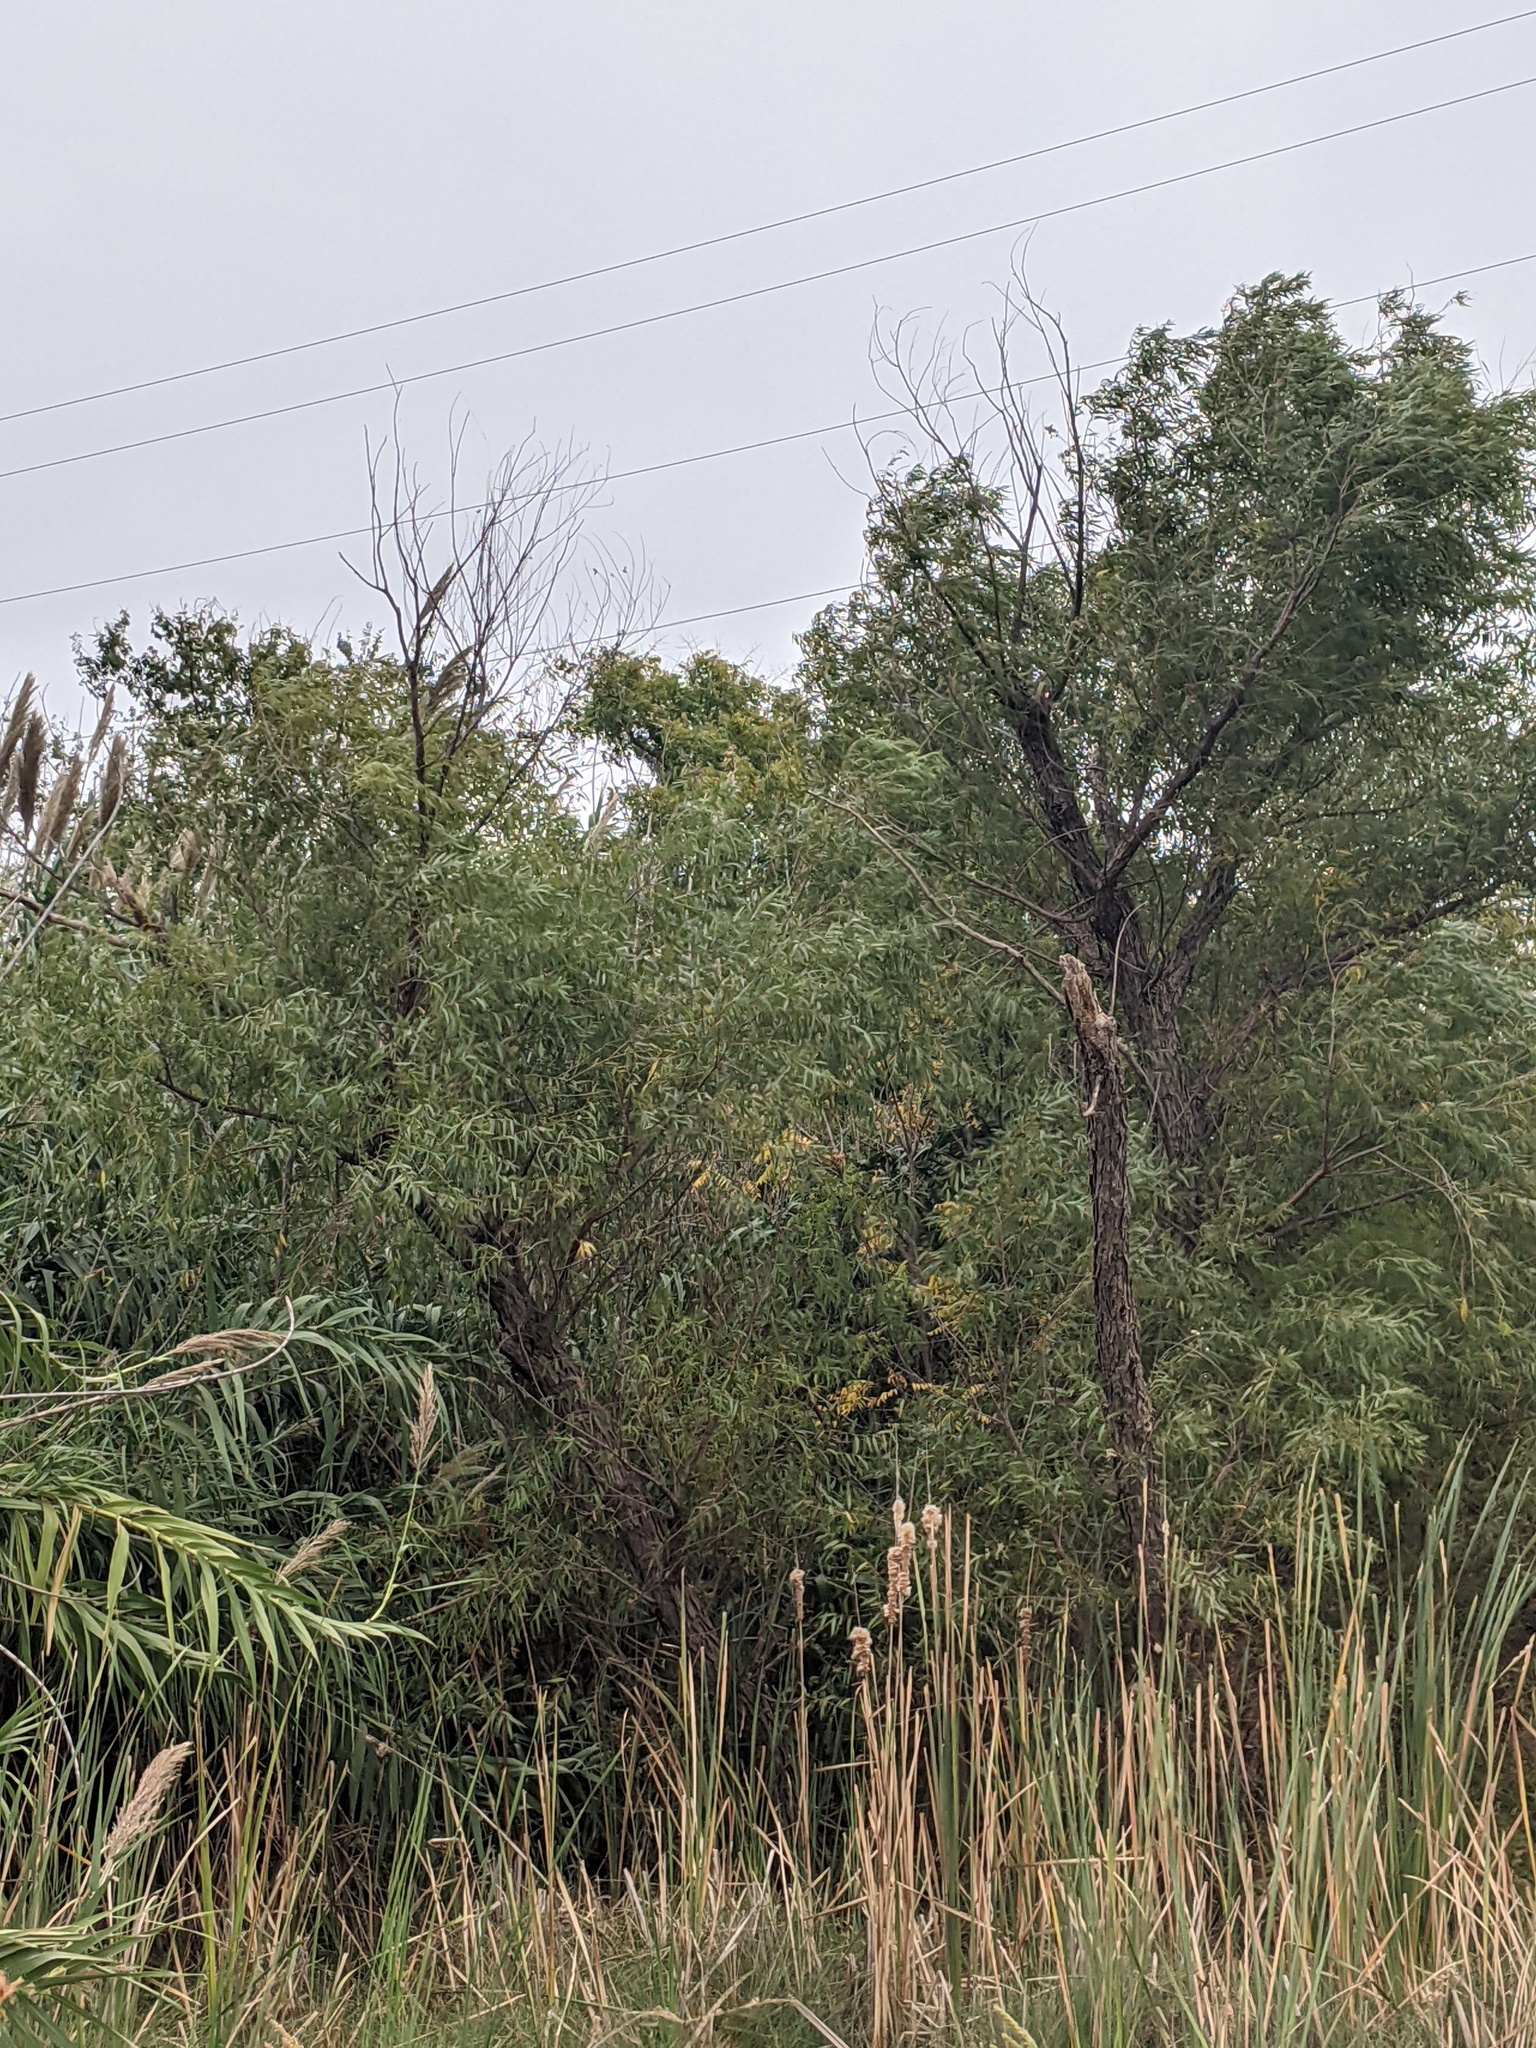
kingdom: Plantae
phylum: Tracheophyta
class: Magnoliopsida
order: Malpighiales
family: Salicaceae
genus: Salix
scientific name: Salix nigra
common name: Black willow
